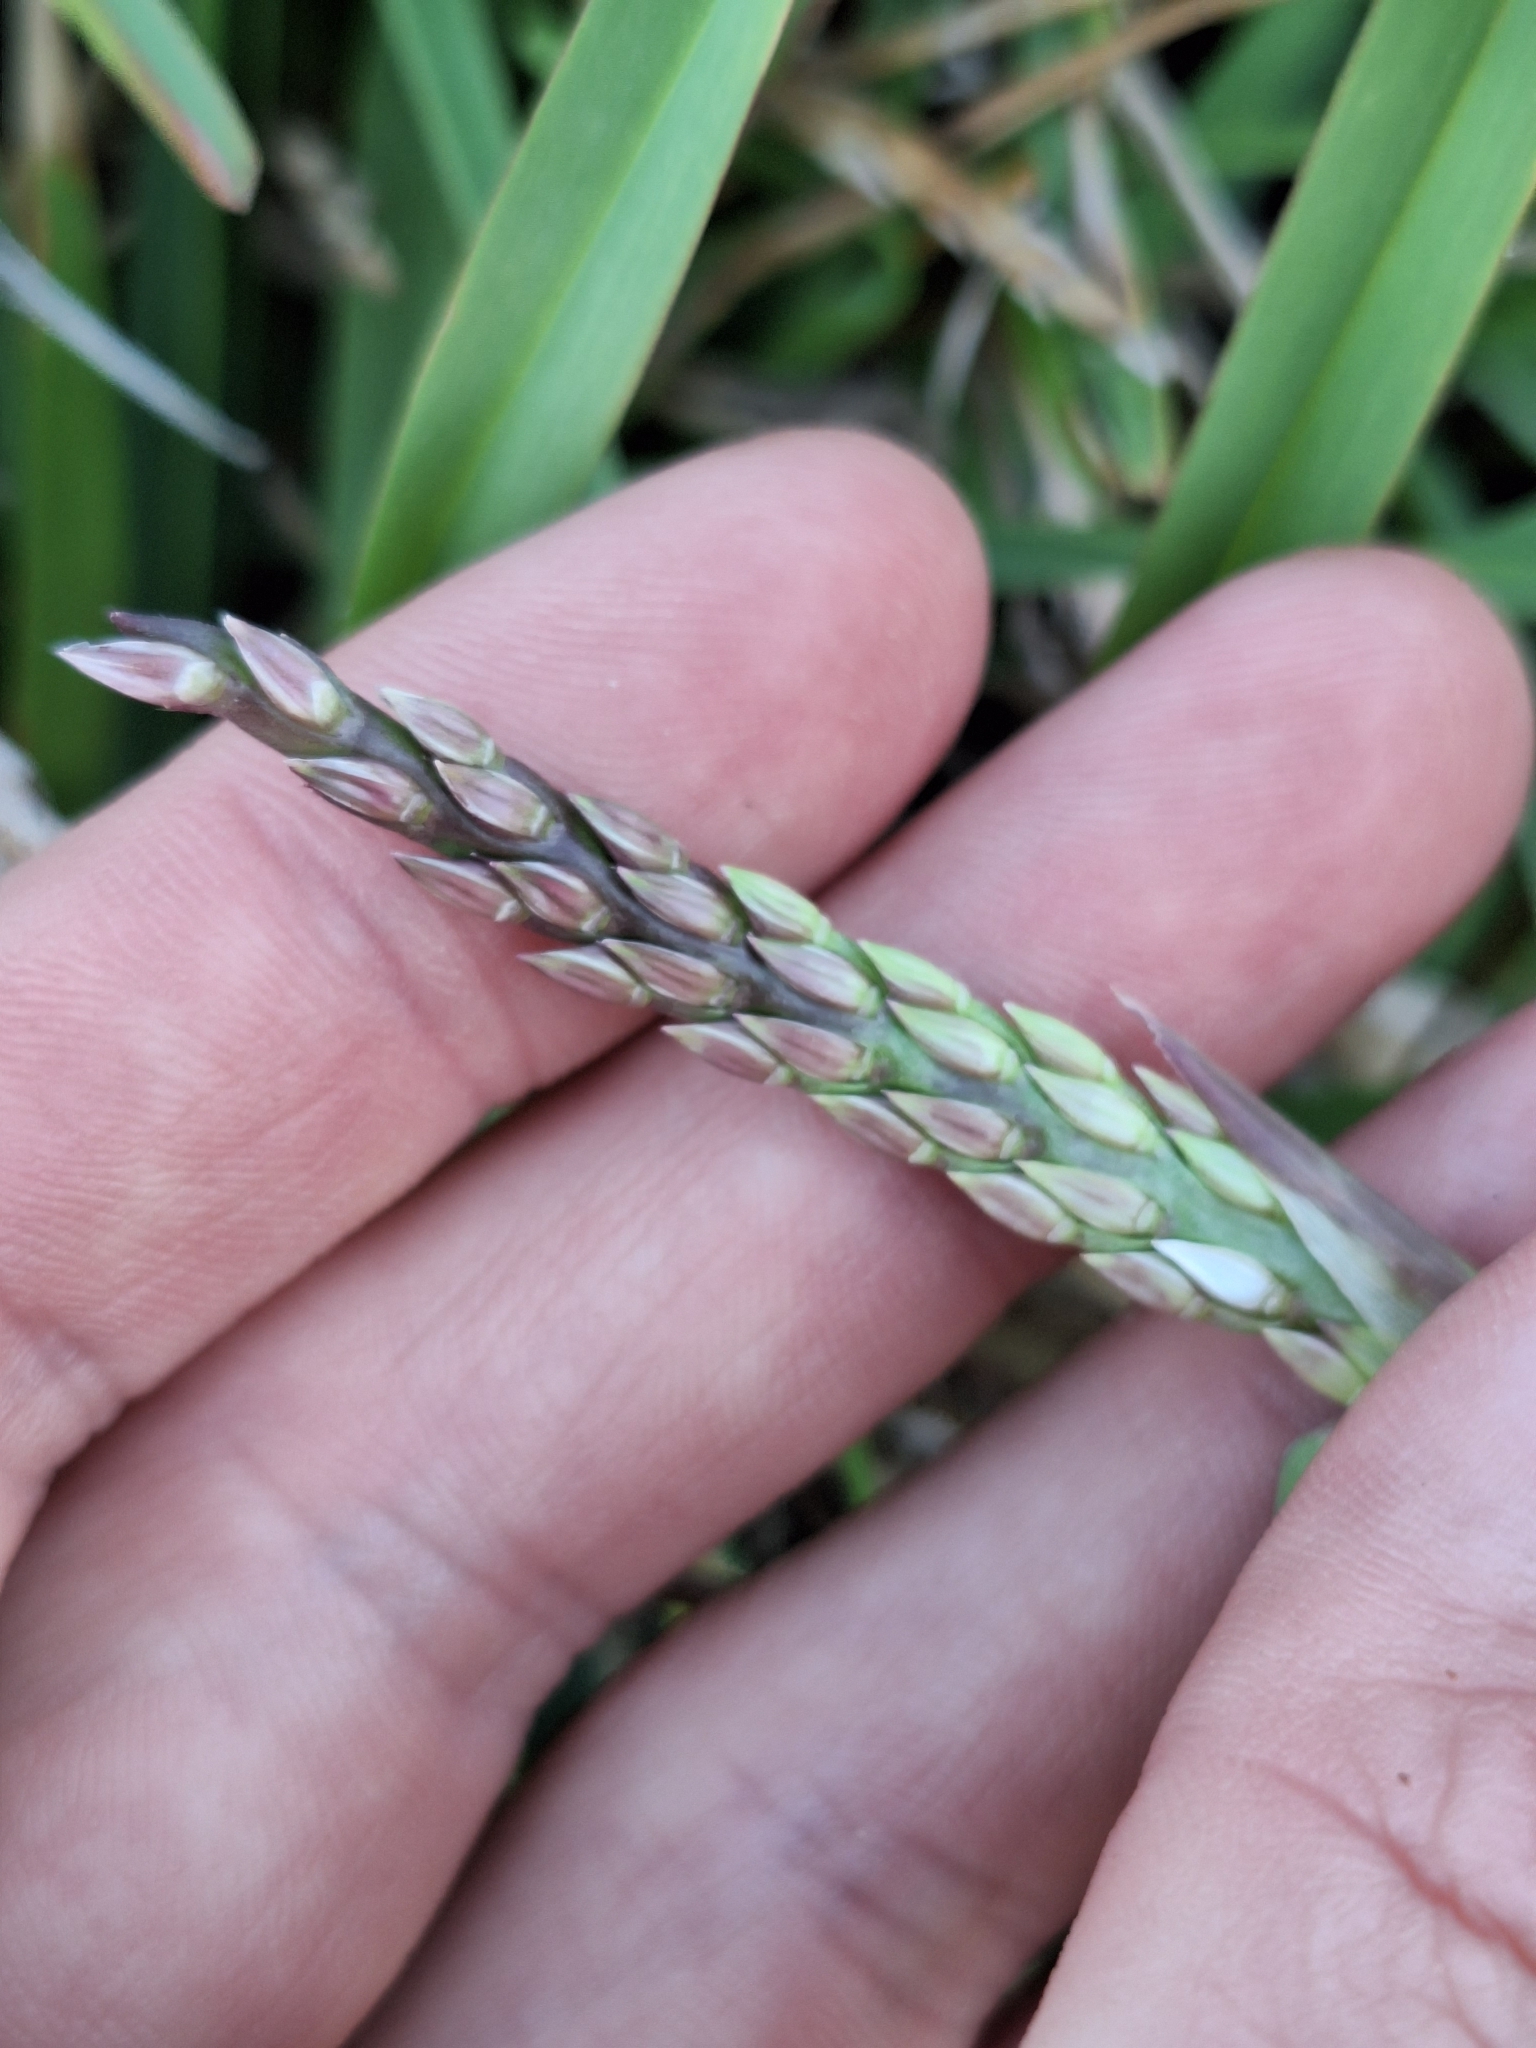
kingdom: Plantae
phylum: Tracheophyta
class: Liliopsida
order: Poales
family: Poaceae
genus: Stenotaphrum
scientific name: Stenotaphrum secundatum
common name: St. augustine grass
